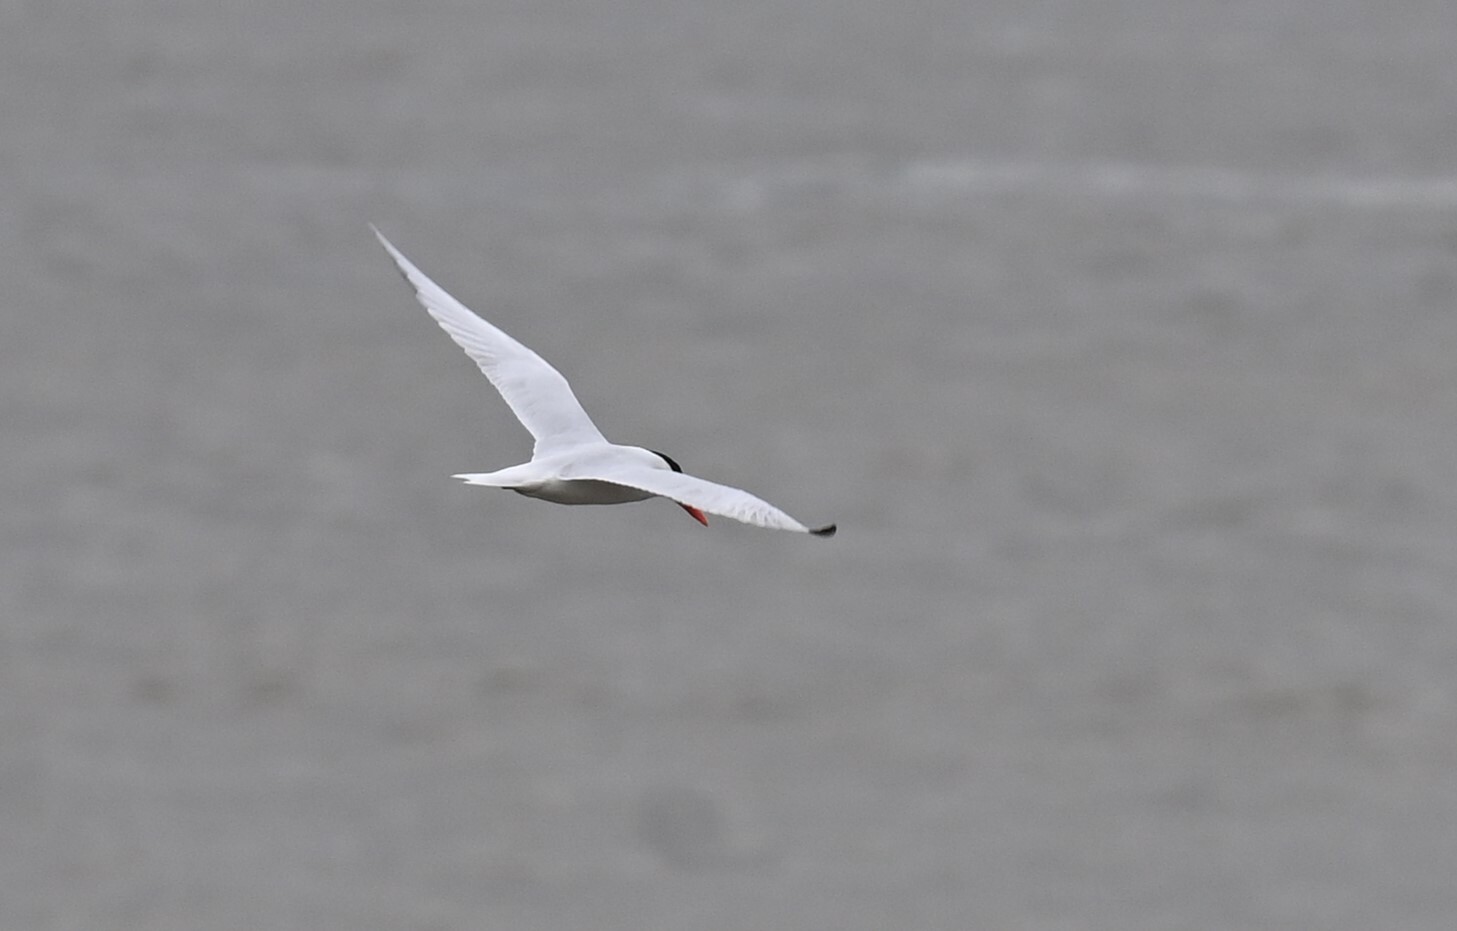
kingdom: Animalia
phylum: Chordata
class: Aves
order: Charadriiformes
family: Laridae
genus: Hydroprogne
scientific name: Hydroprogne caspia
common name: Caspian tern
